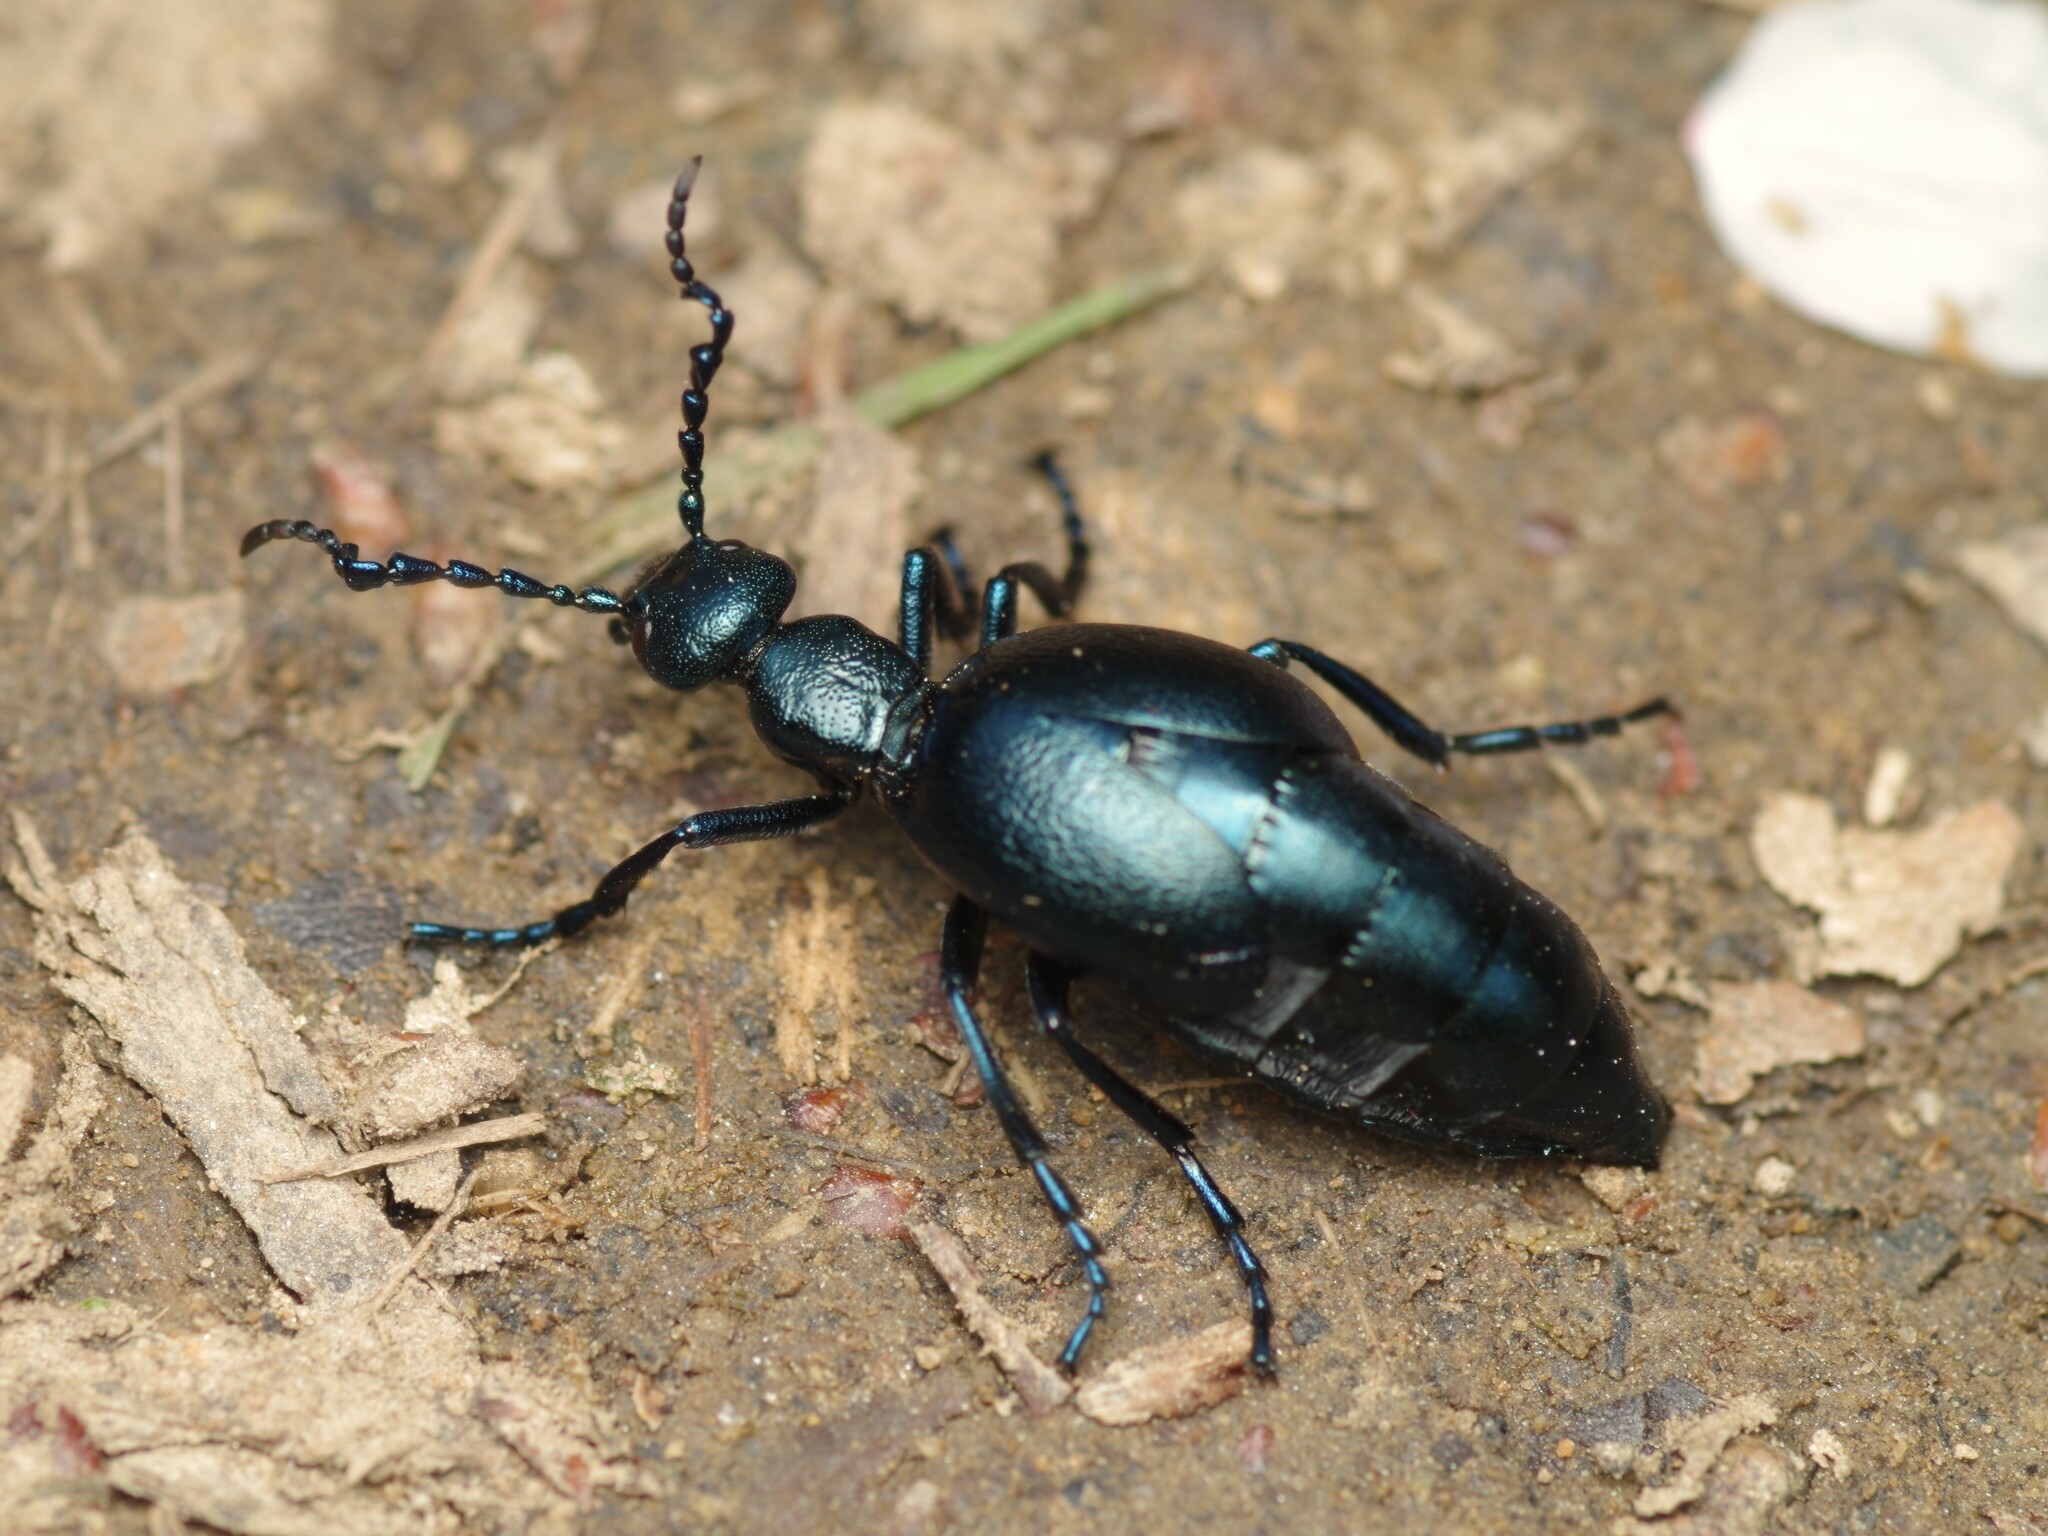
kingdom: Animalia
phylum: Arthropoda
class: Insecta
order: Coleoptera
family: Meloidae
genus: Meloe
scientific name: Meloe violaceus
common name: Violet oil-beetle
